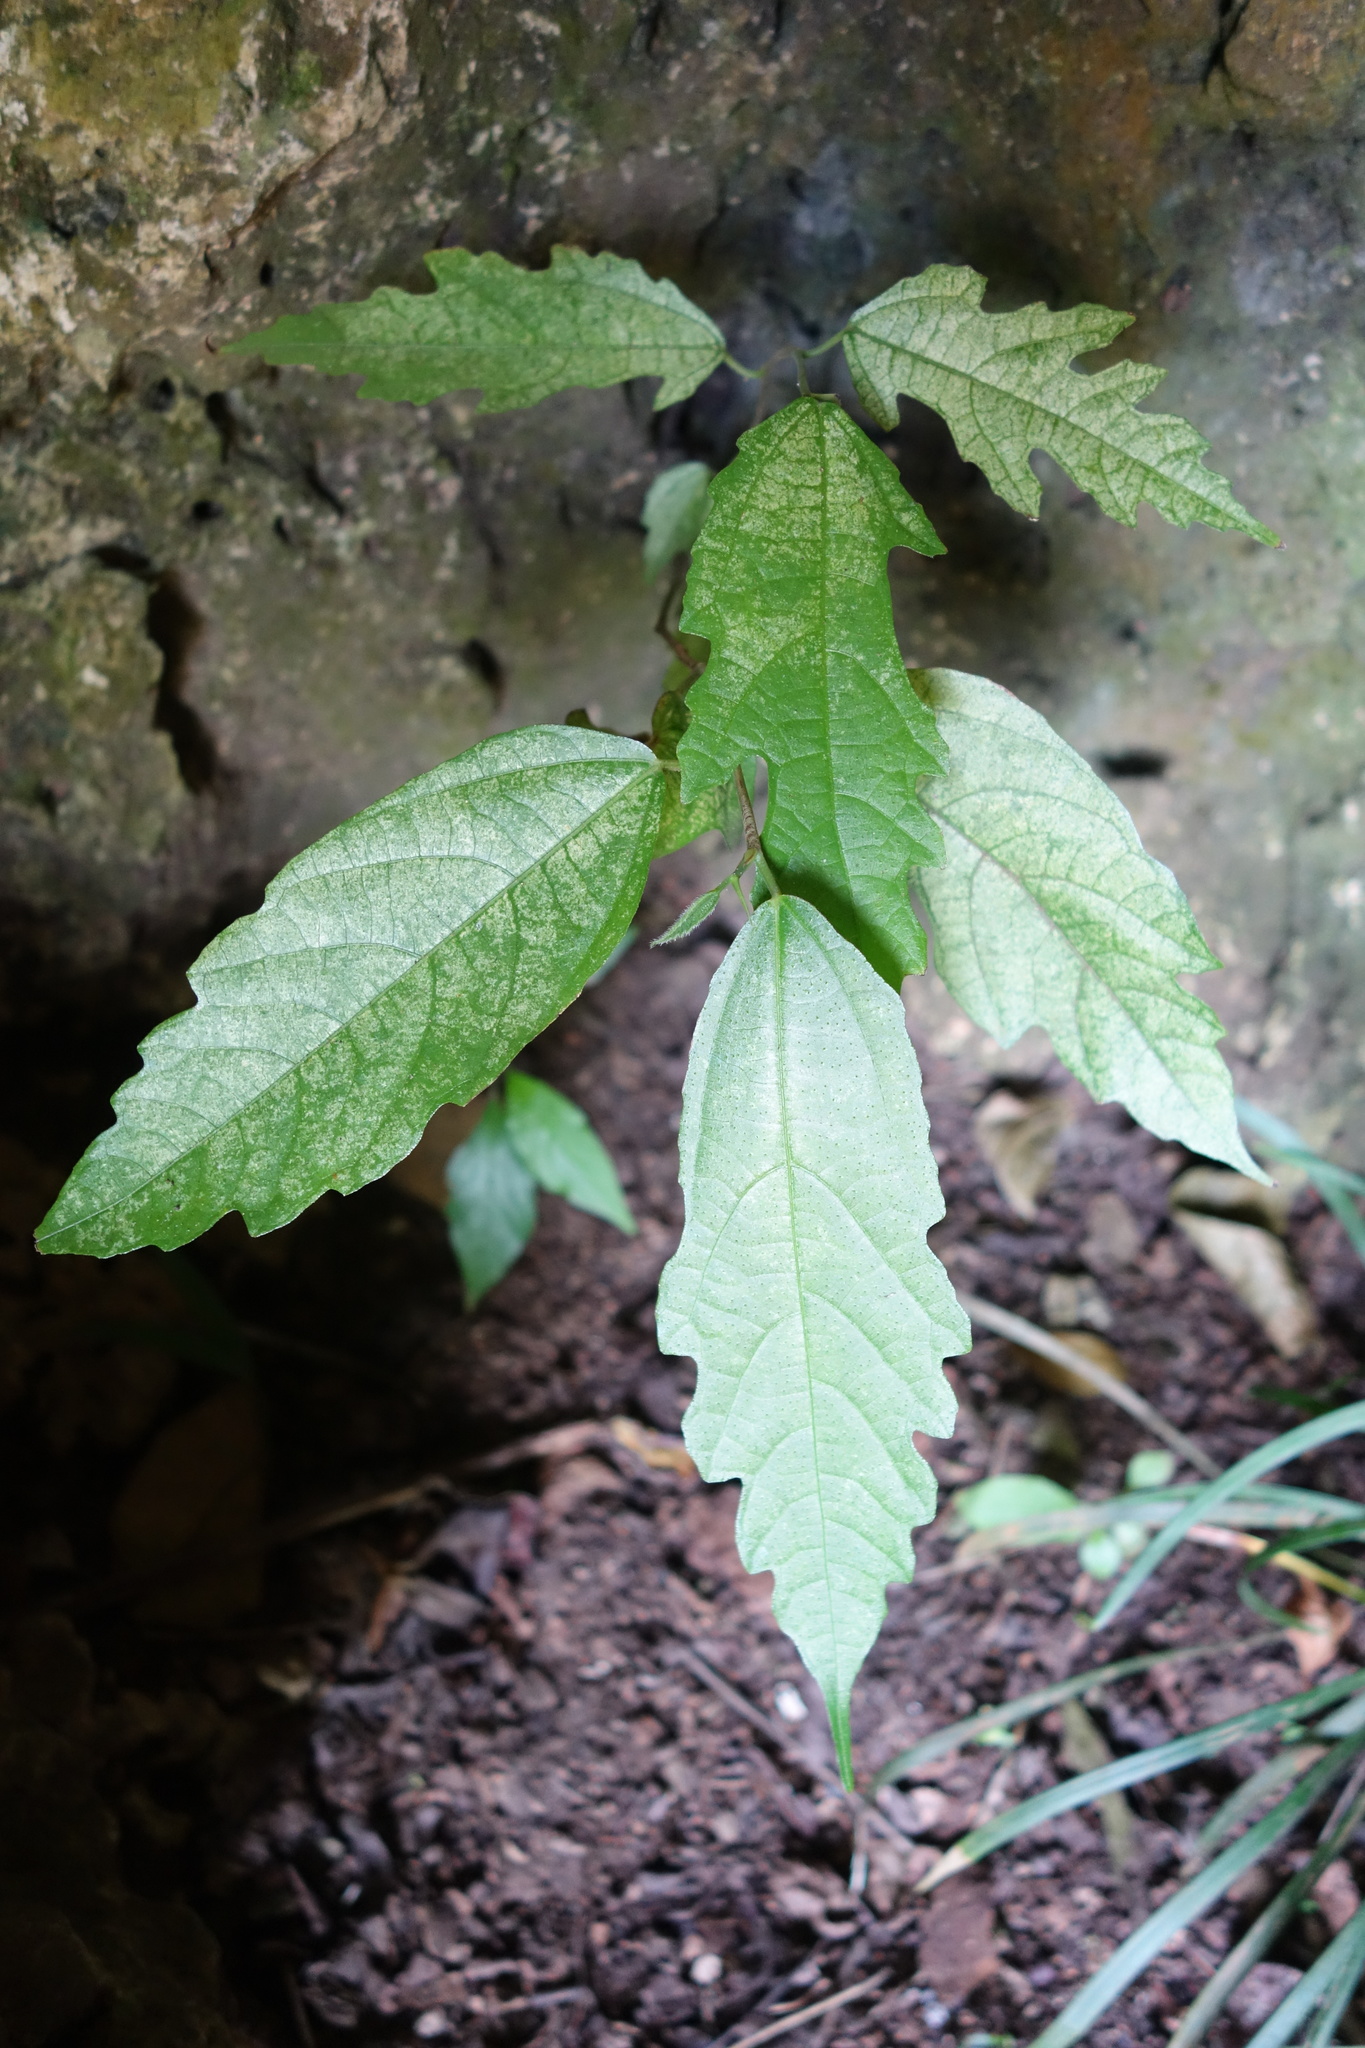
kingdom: Plantae
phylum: Tracheophyta
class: Magnoliopsida
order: Rosales
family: Moraceae
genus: Ficus
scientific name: Ficus ampelos
